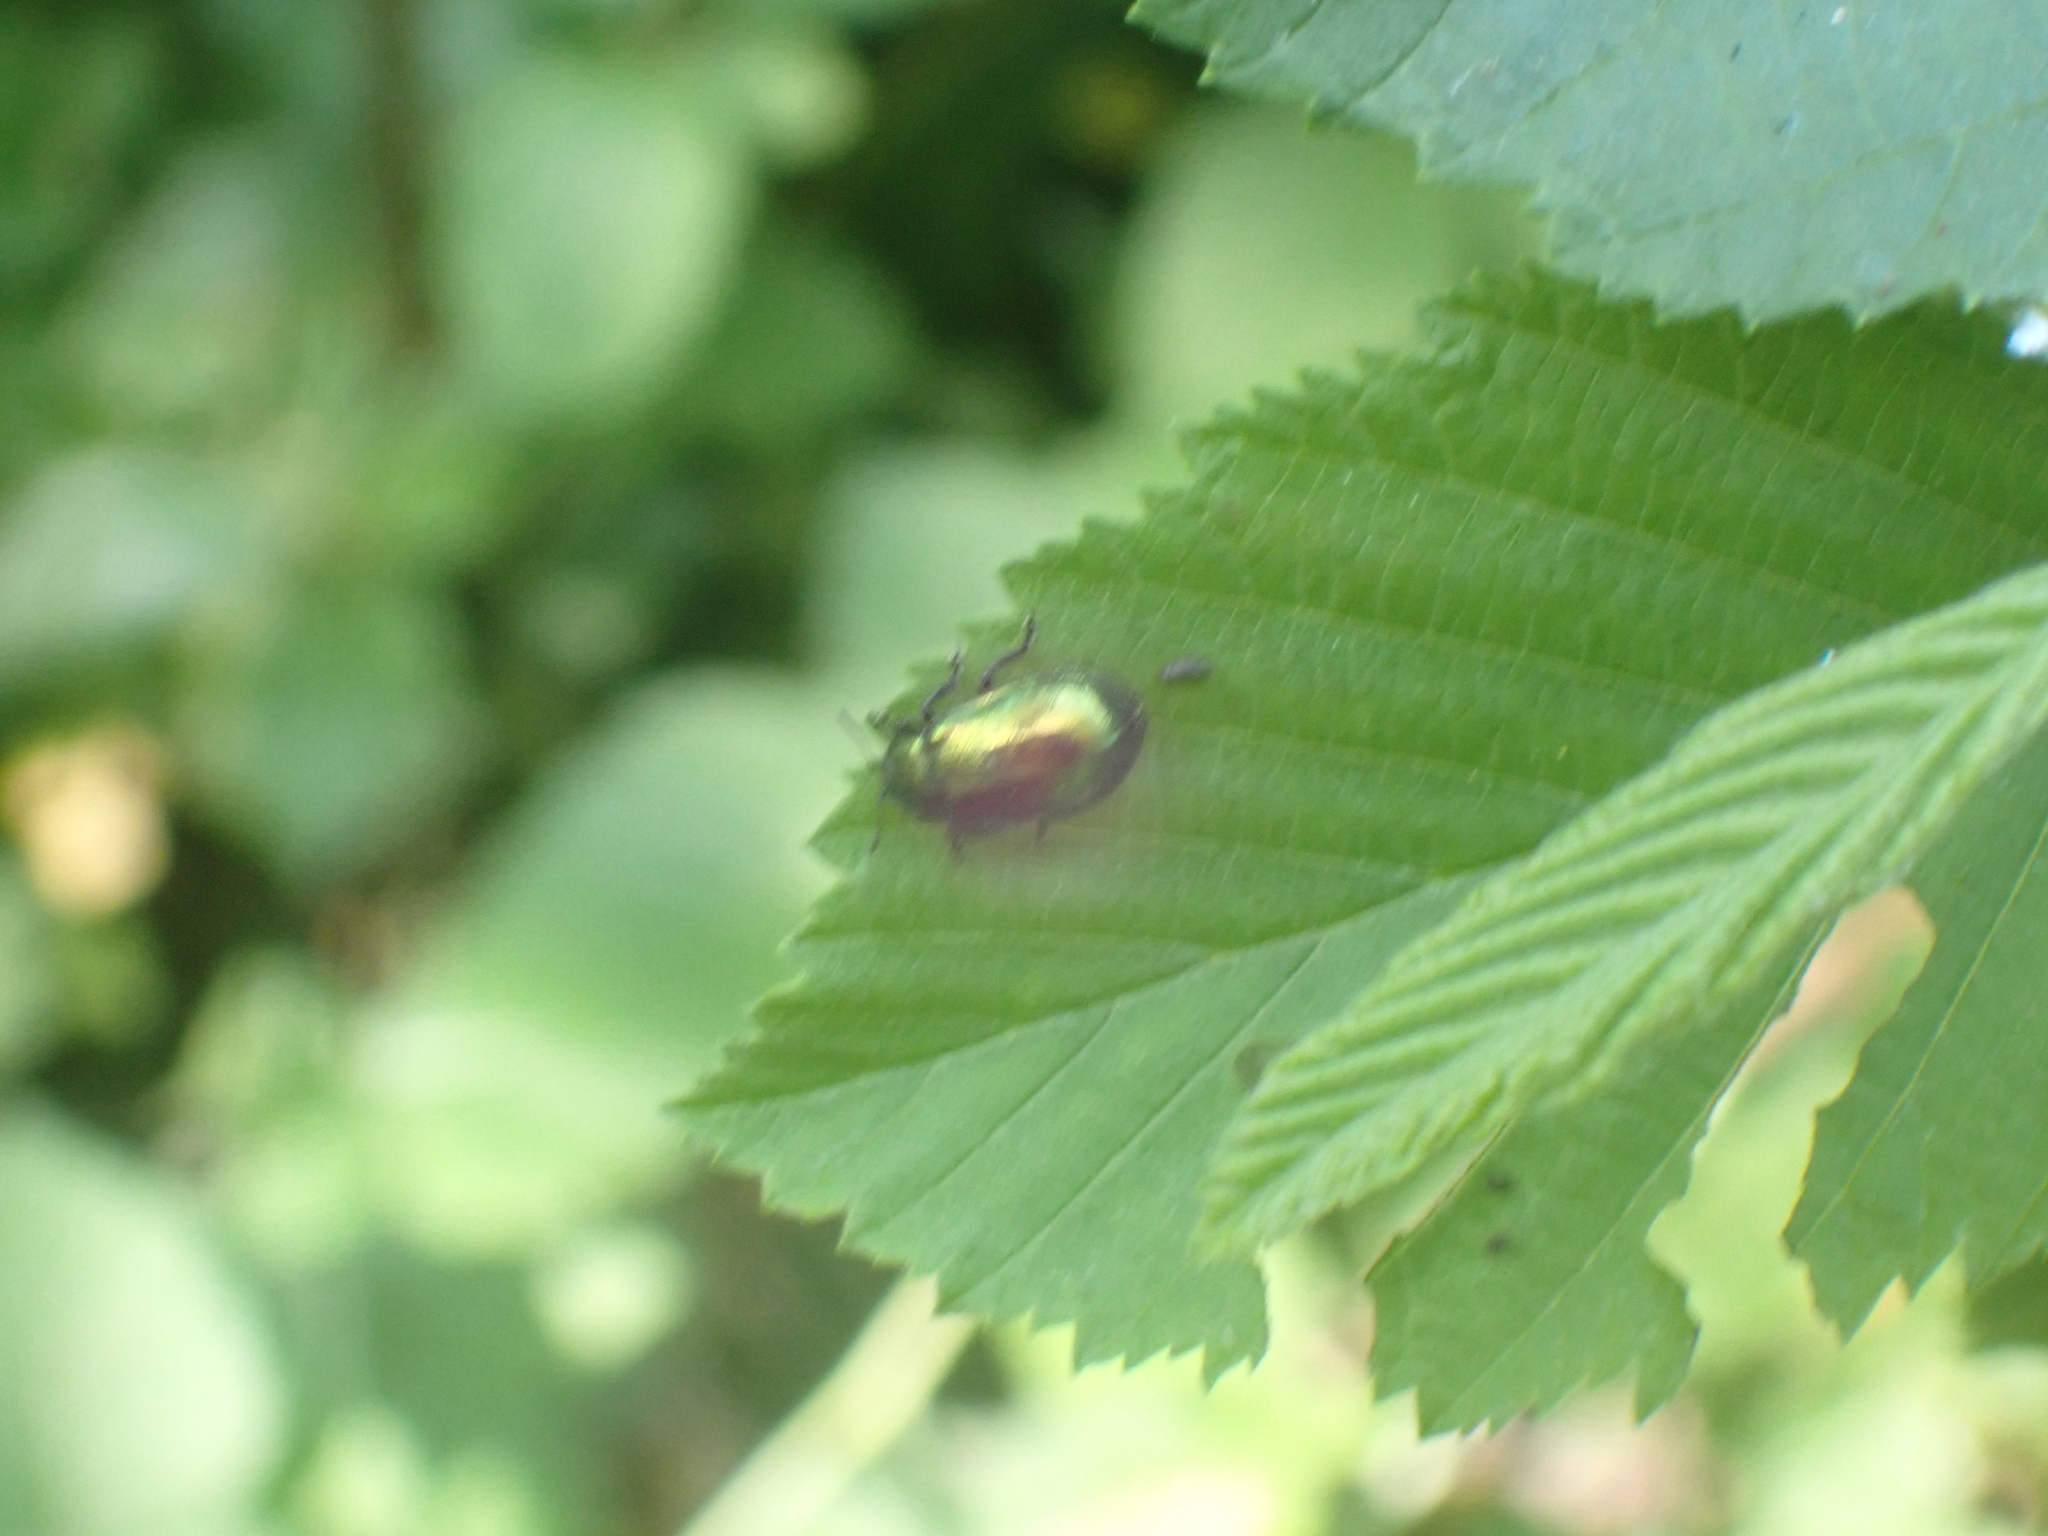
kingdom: Animalia
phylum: Arthropoda
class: Insecta
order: Coleoptera
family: Chrysomelidae
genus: Plagiosterna
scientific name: Plagiosterna aenea
